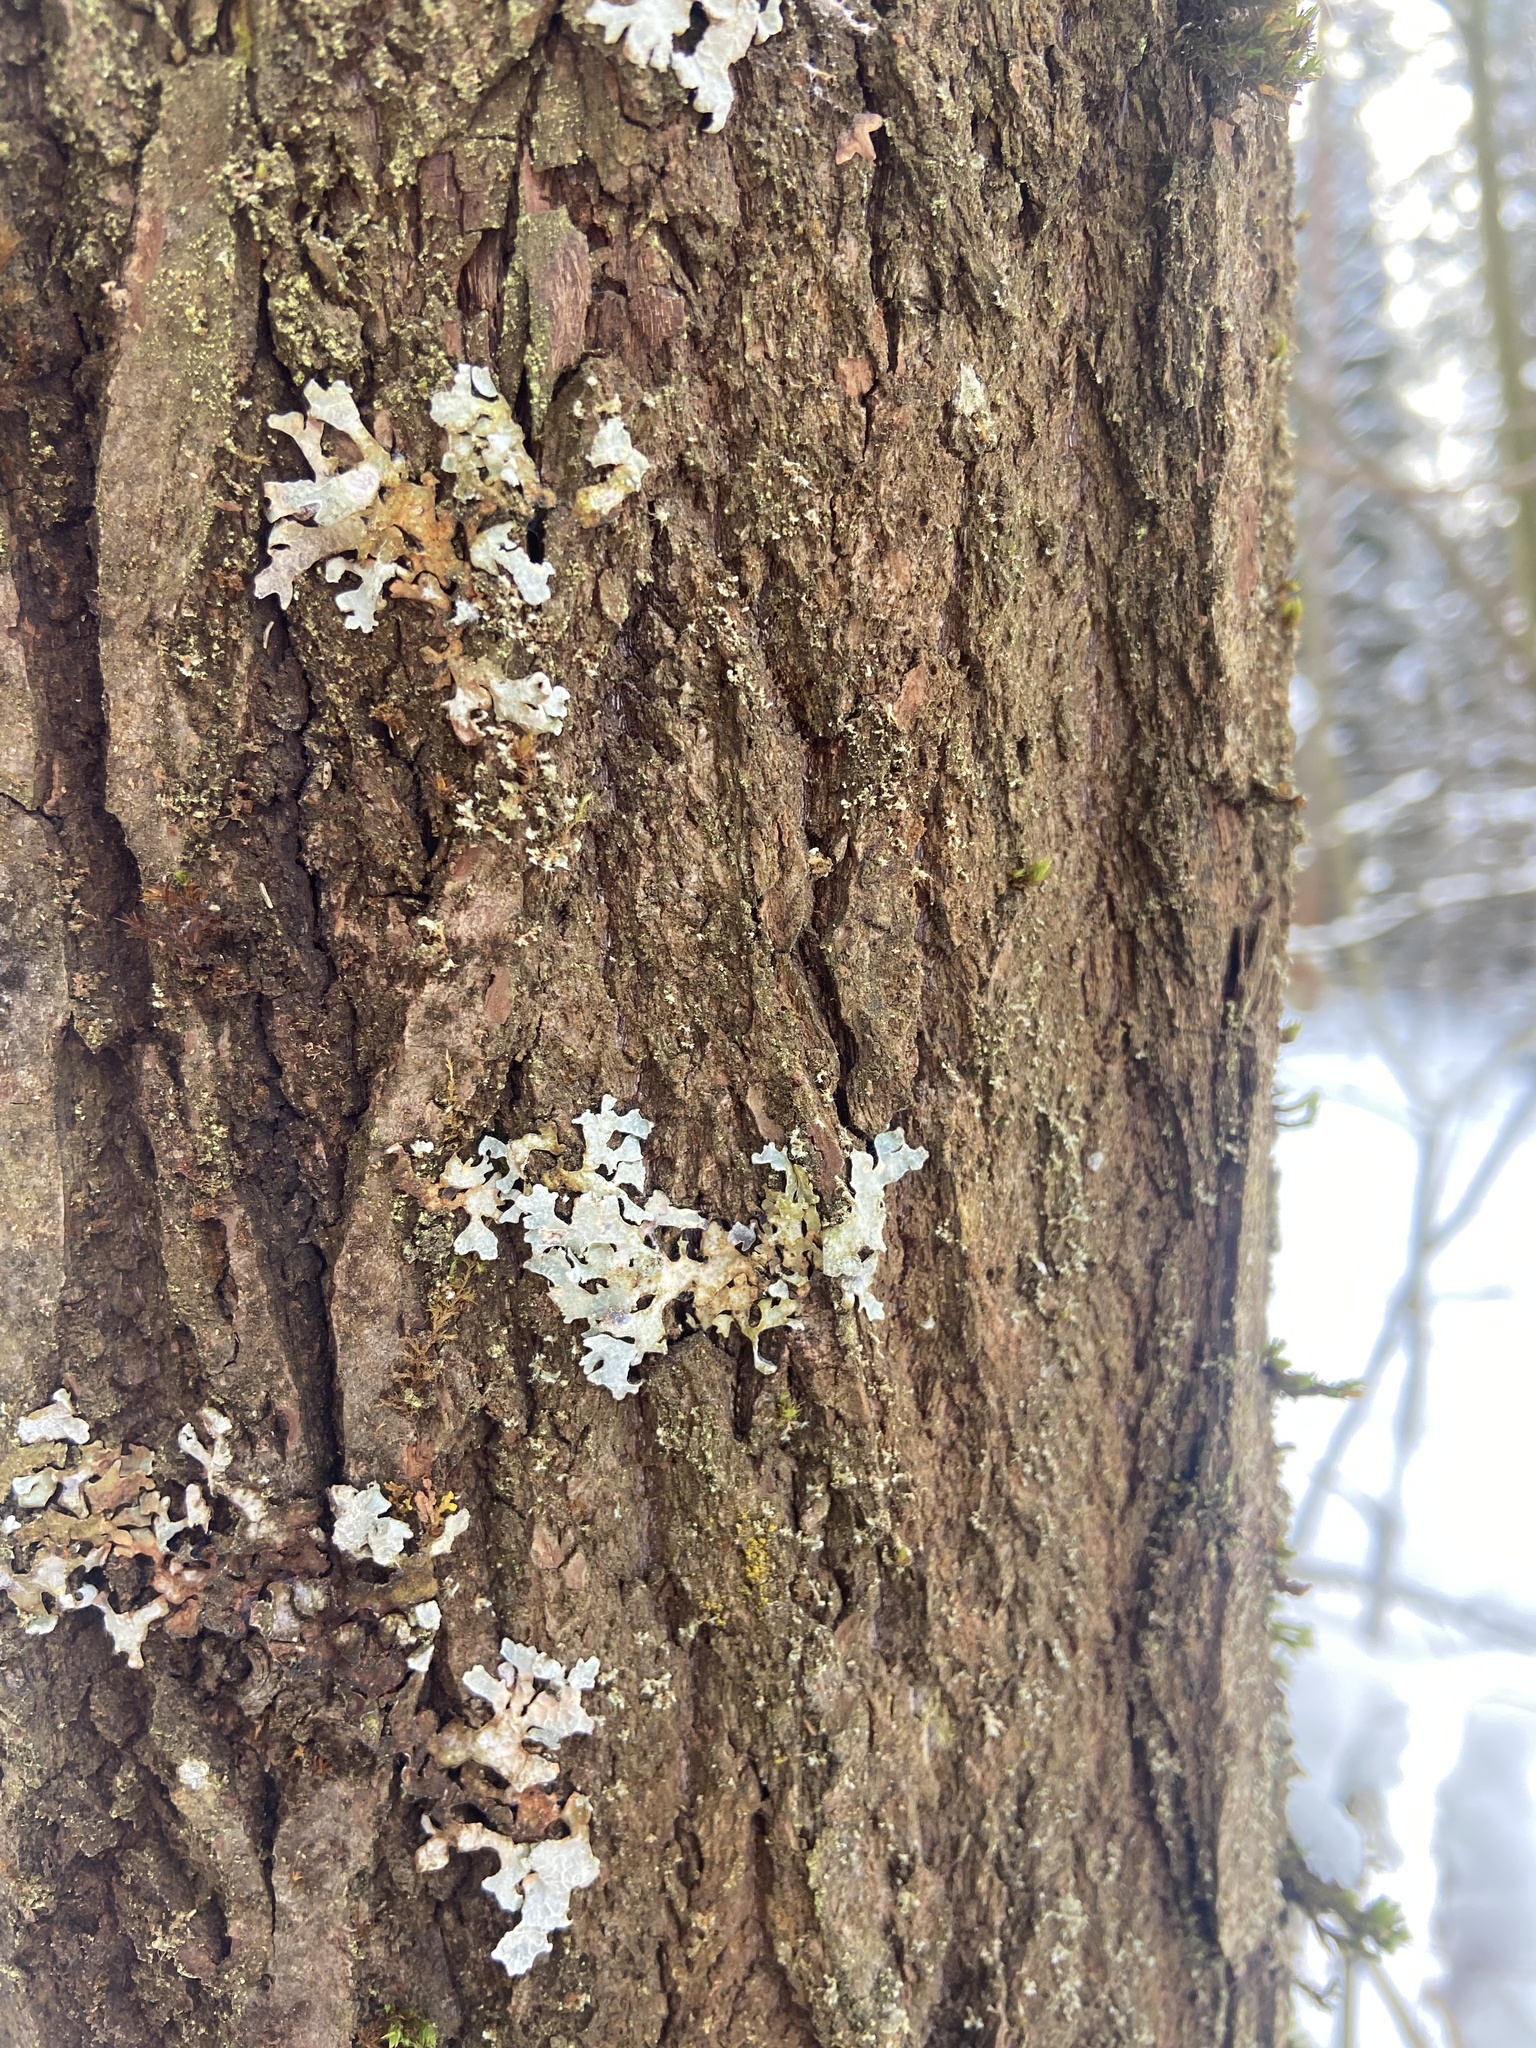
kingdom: Fungi
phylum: Ascomycota
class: Lecanoromycetes
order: Lecanorales
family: Parmeliaceae
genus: Parmelia
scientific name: Parmelia sulcata
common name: Netted shield lichen
